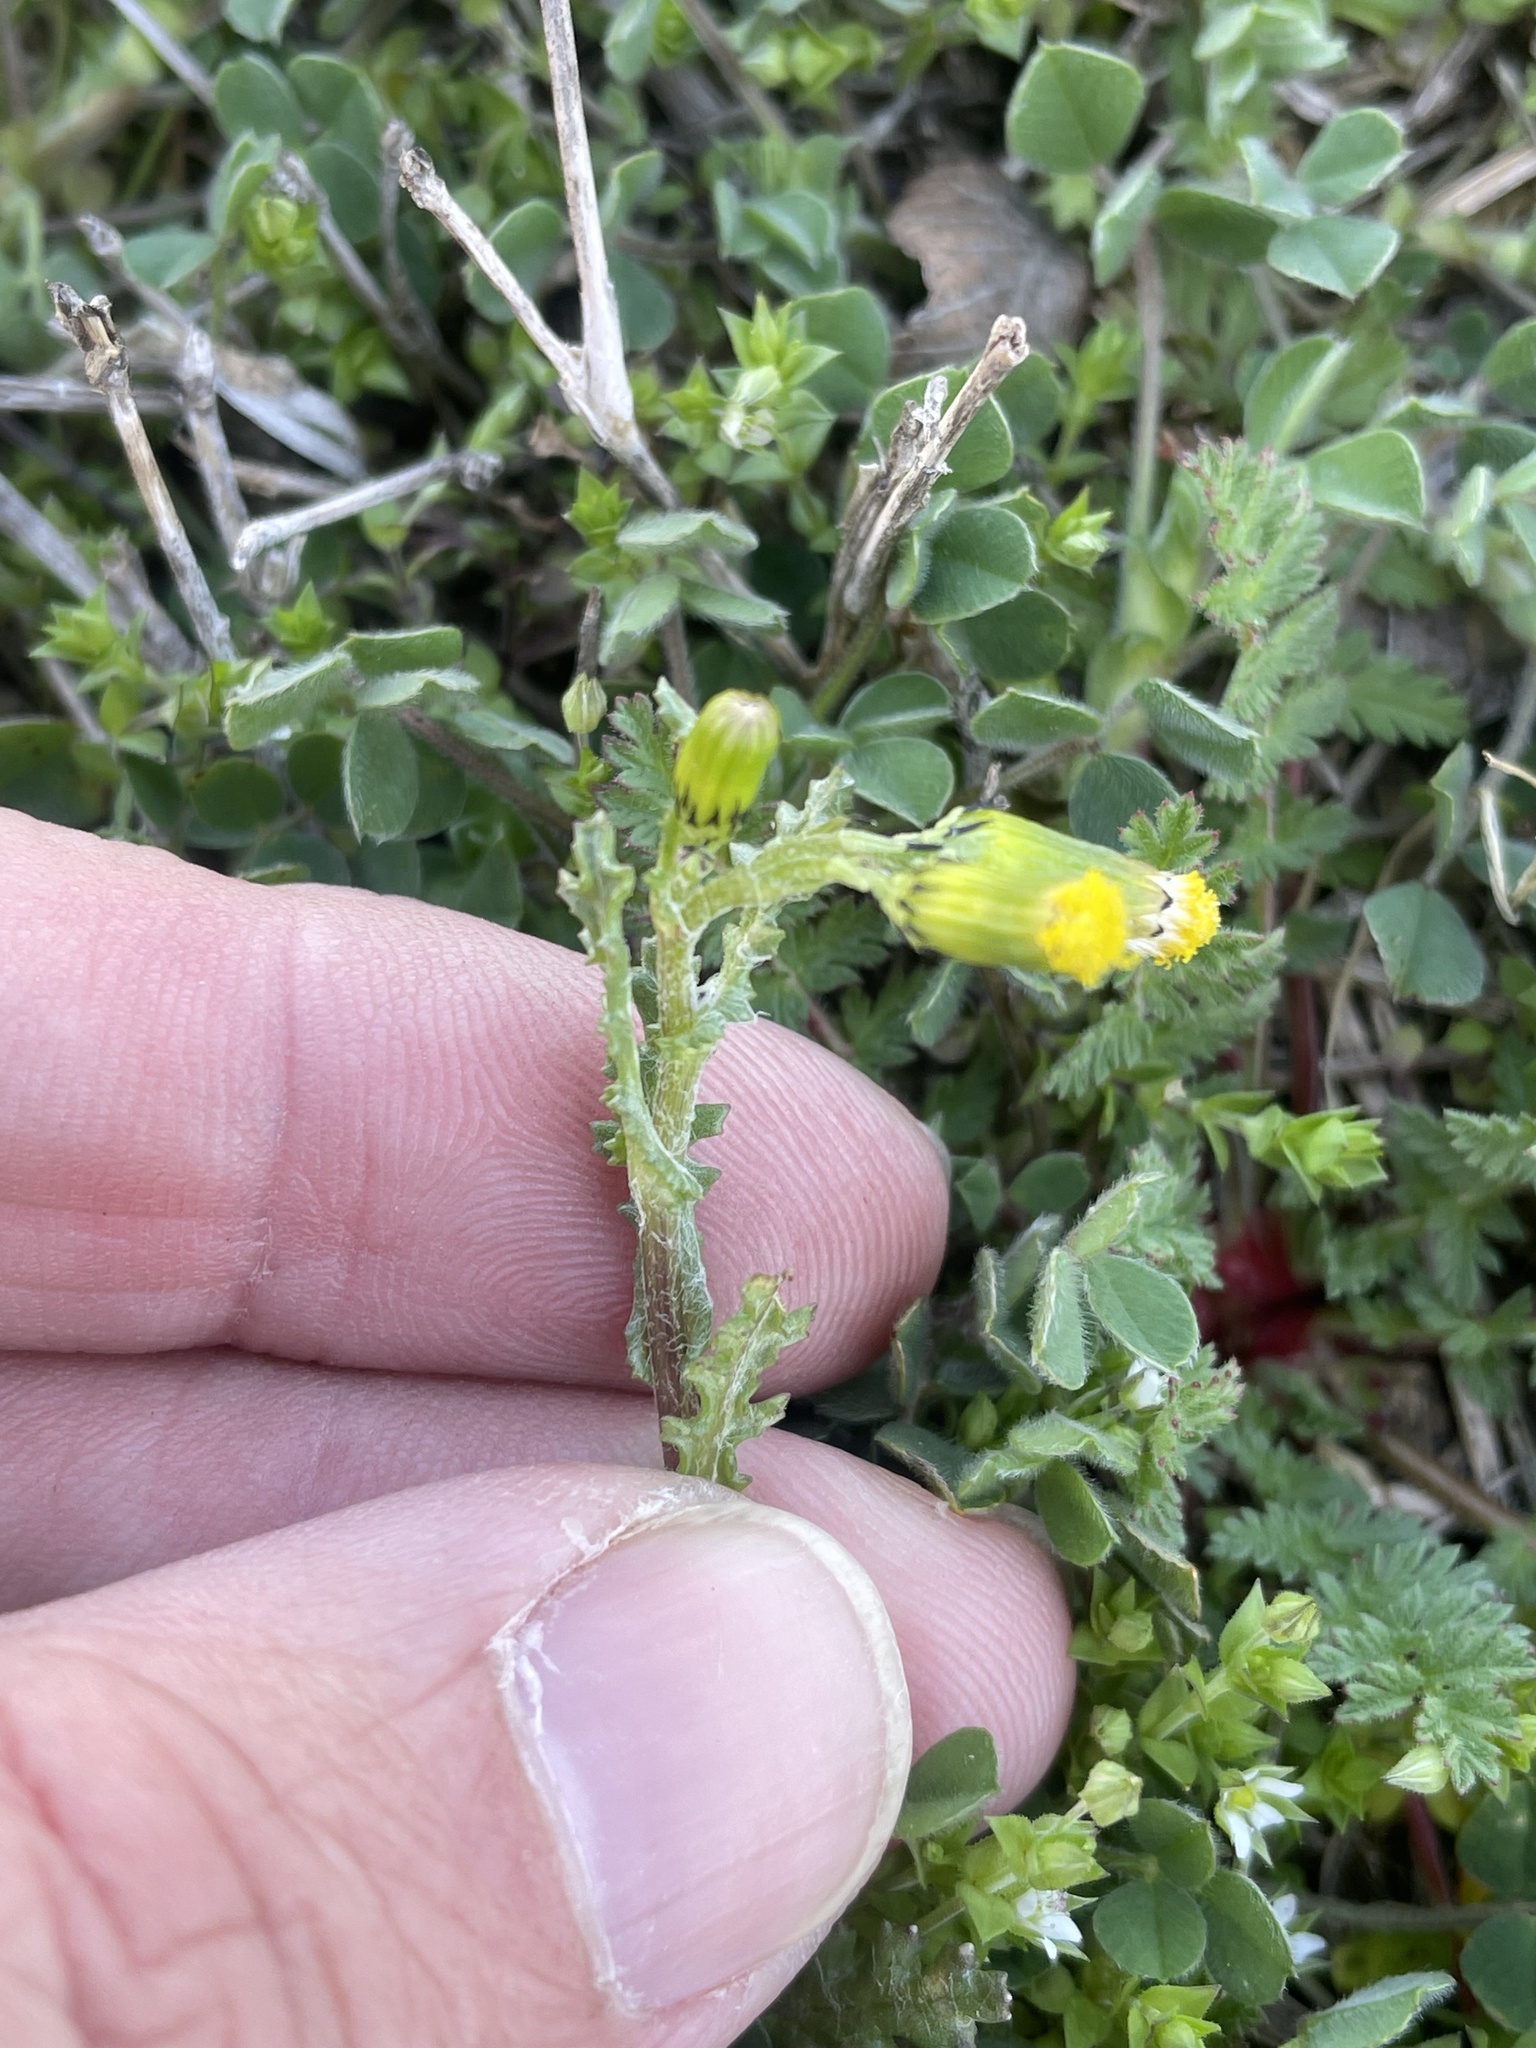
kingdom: Plantae
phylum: Tracheophyta
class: Magnoliopsida
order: Asterales
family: Asteraceae
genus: Senecio
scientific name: Senecio vulgaris
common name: Old-man-in-the-spring
